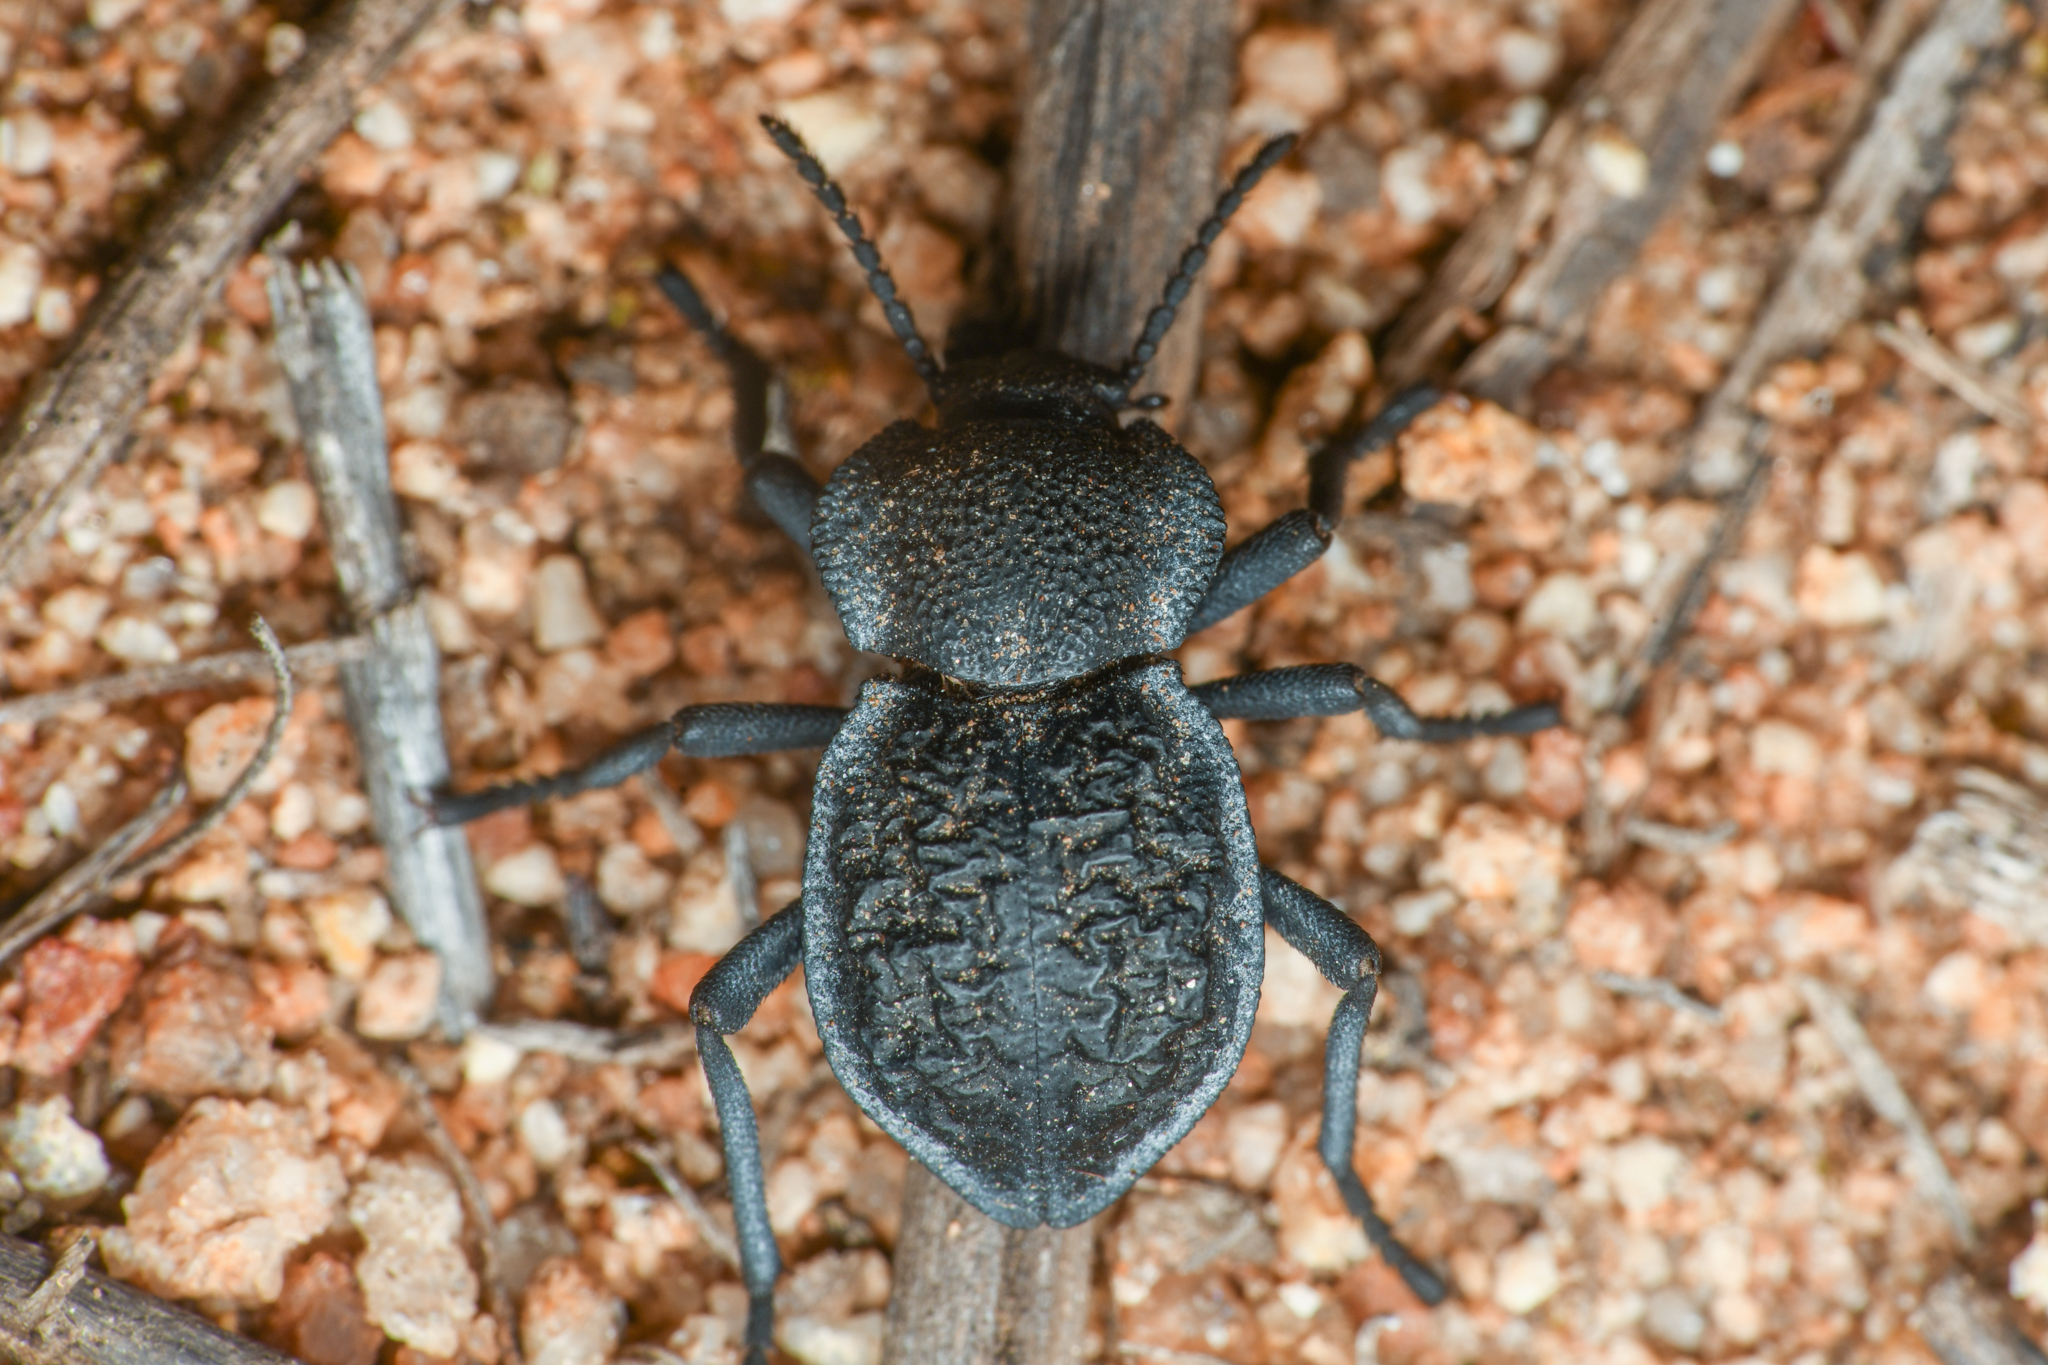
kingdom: Animalia
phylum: Arthropoda
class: Insecta
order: Coleoptera
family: Tenebrionidae
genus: Microschatia
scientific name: Microschatia inaequalis
